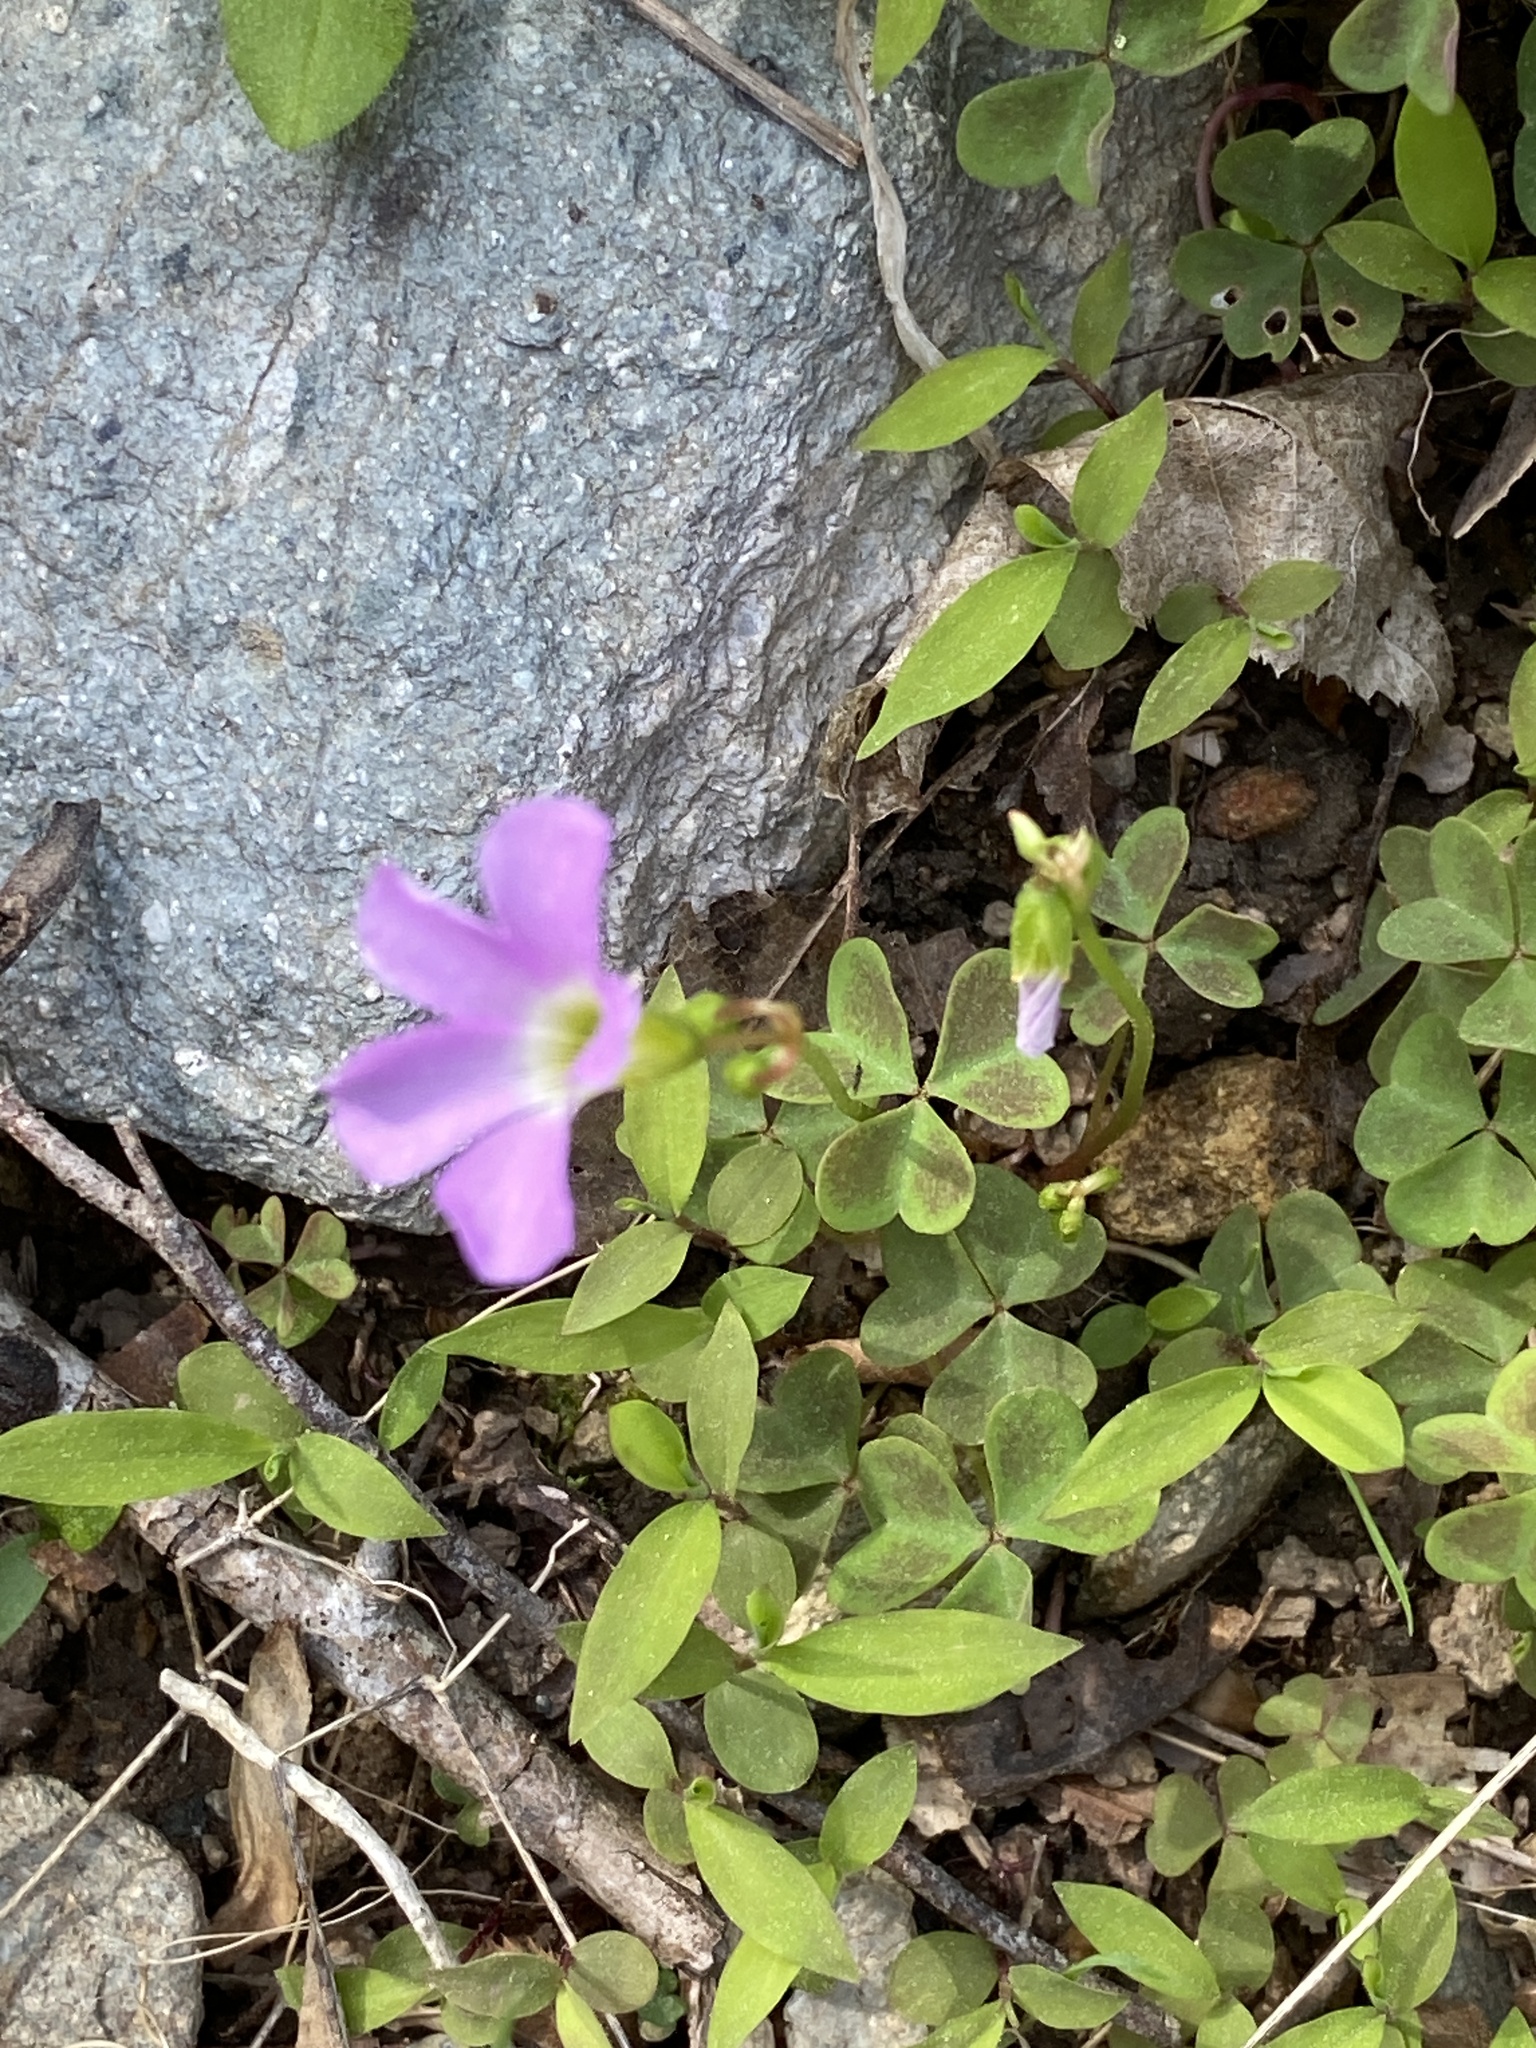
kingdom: Plantae
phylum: Tracheophyta
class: Magnoliopsida
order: Oxalidales
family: Oxalidaceae
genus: Oxalis
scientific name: Oxalis violacea
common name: Violet wood-sorrel
